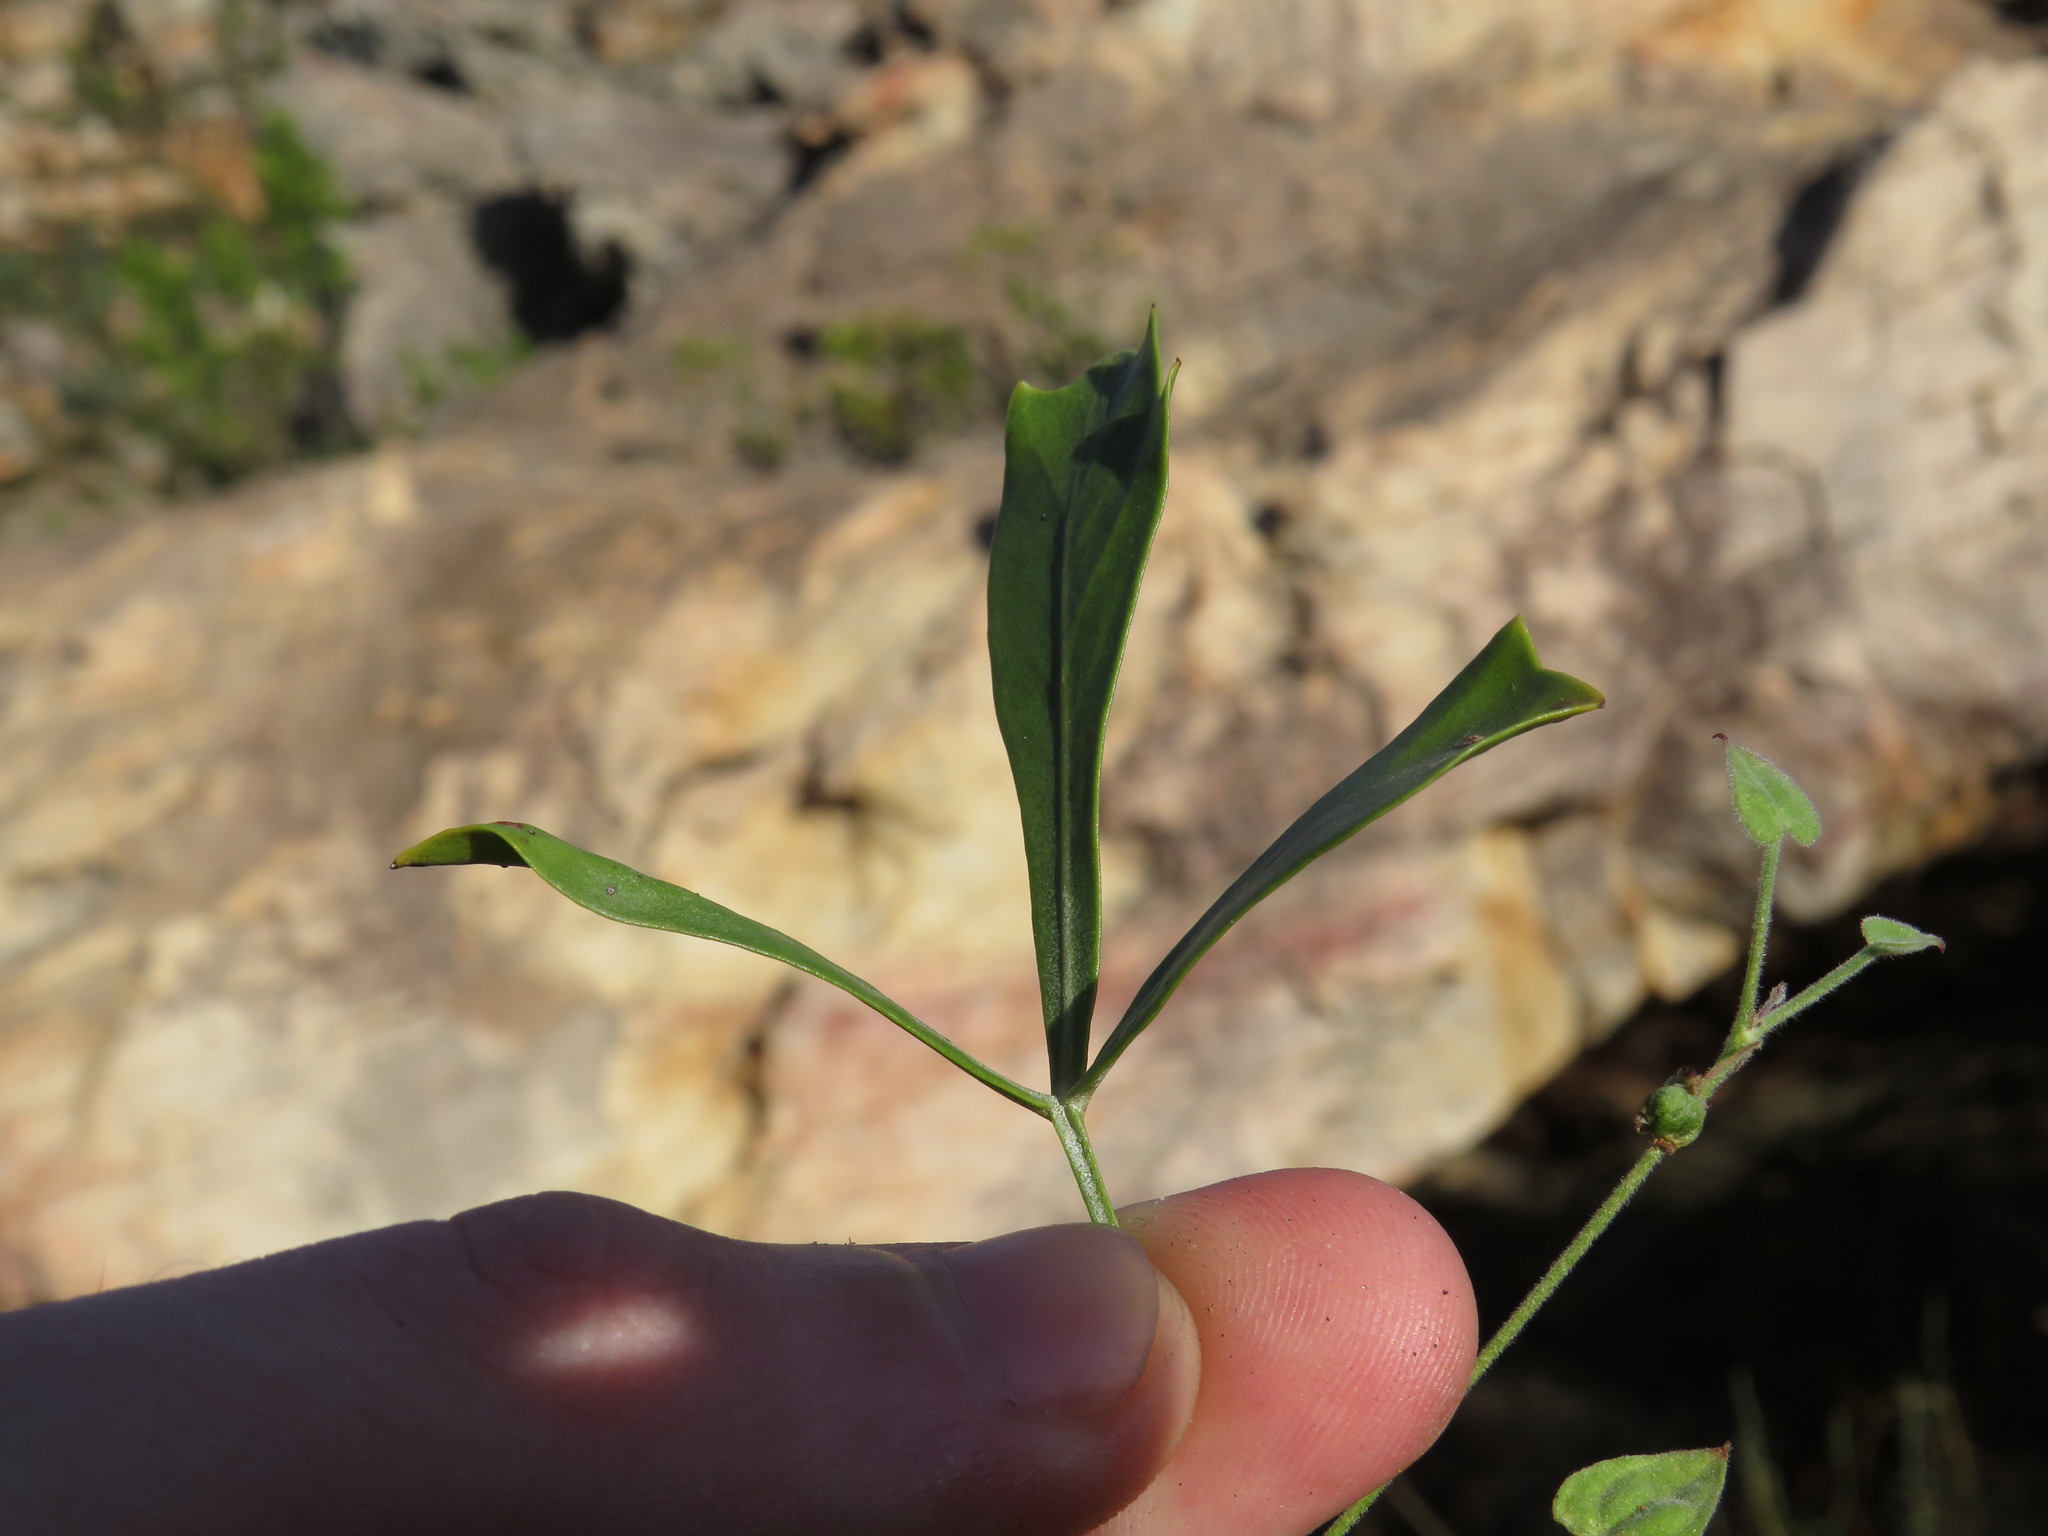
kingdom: Plantae
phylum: Tracheophyta
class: Magnoliopsida
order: Sapindales
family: Anacardiaceae
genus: Searsia
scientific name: Searsia rimosa
